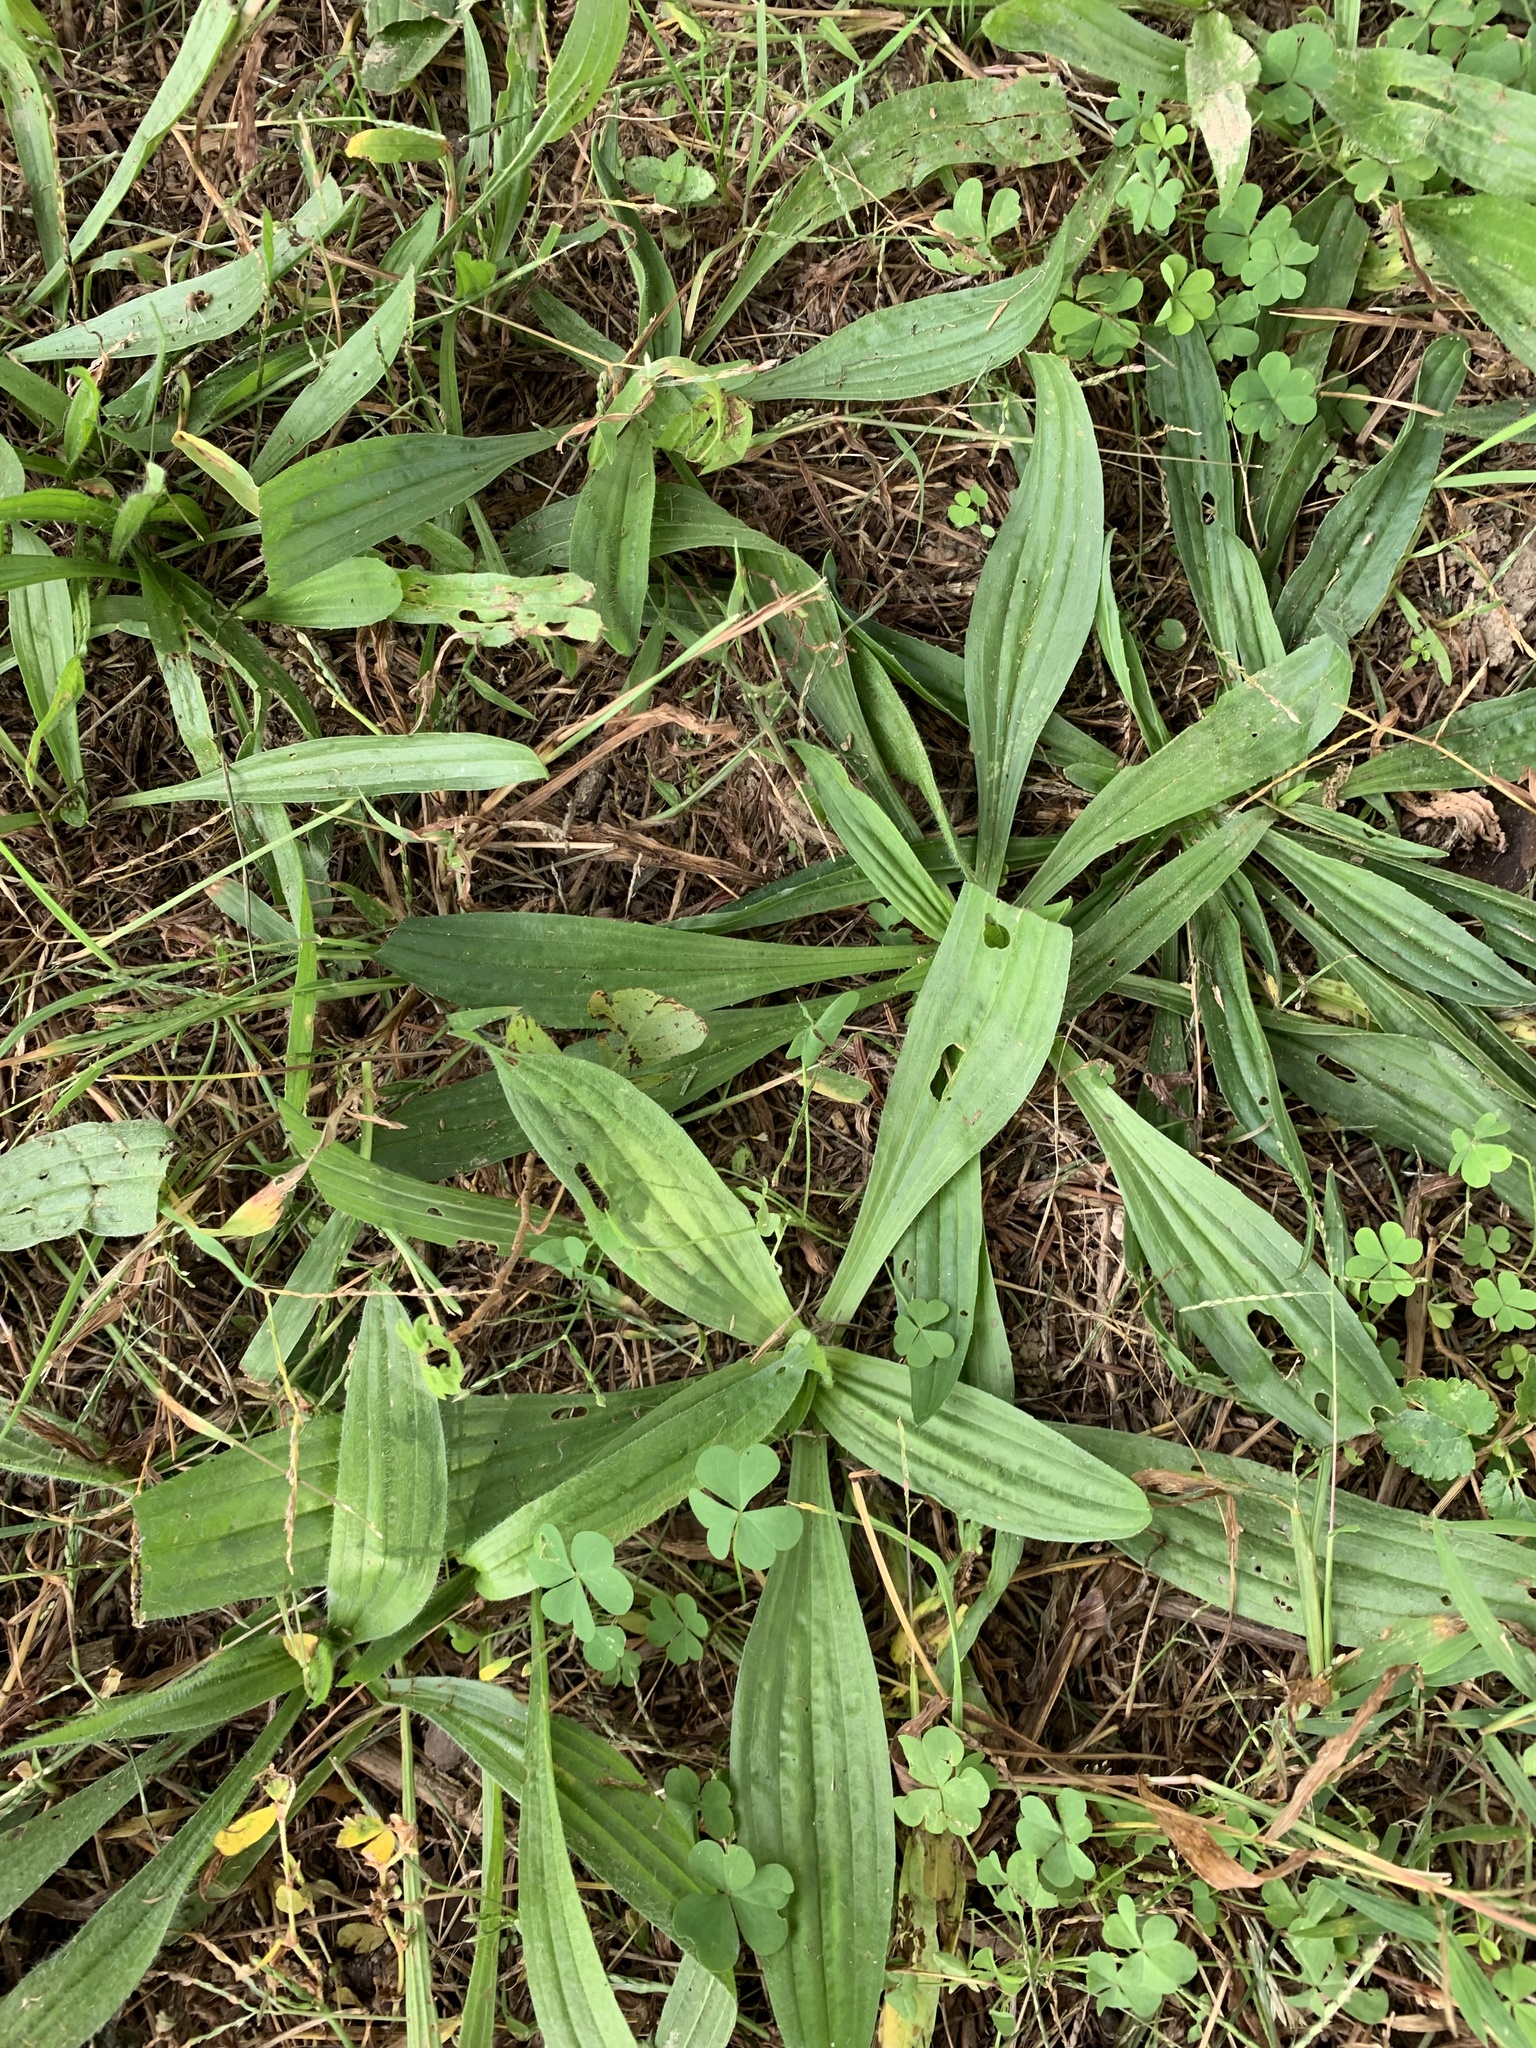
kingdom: Plantae
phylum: Tracheophyta
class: Magnoliopsida
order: Lamiales
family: Plantaginaceae
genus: Plantago
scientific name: Plantago lanceolata
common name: Ribwort plantain
